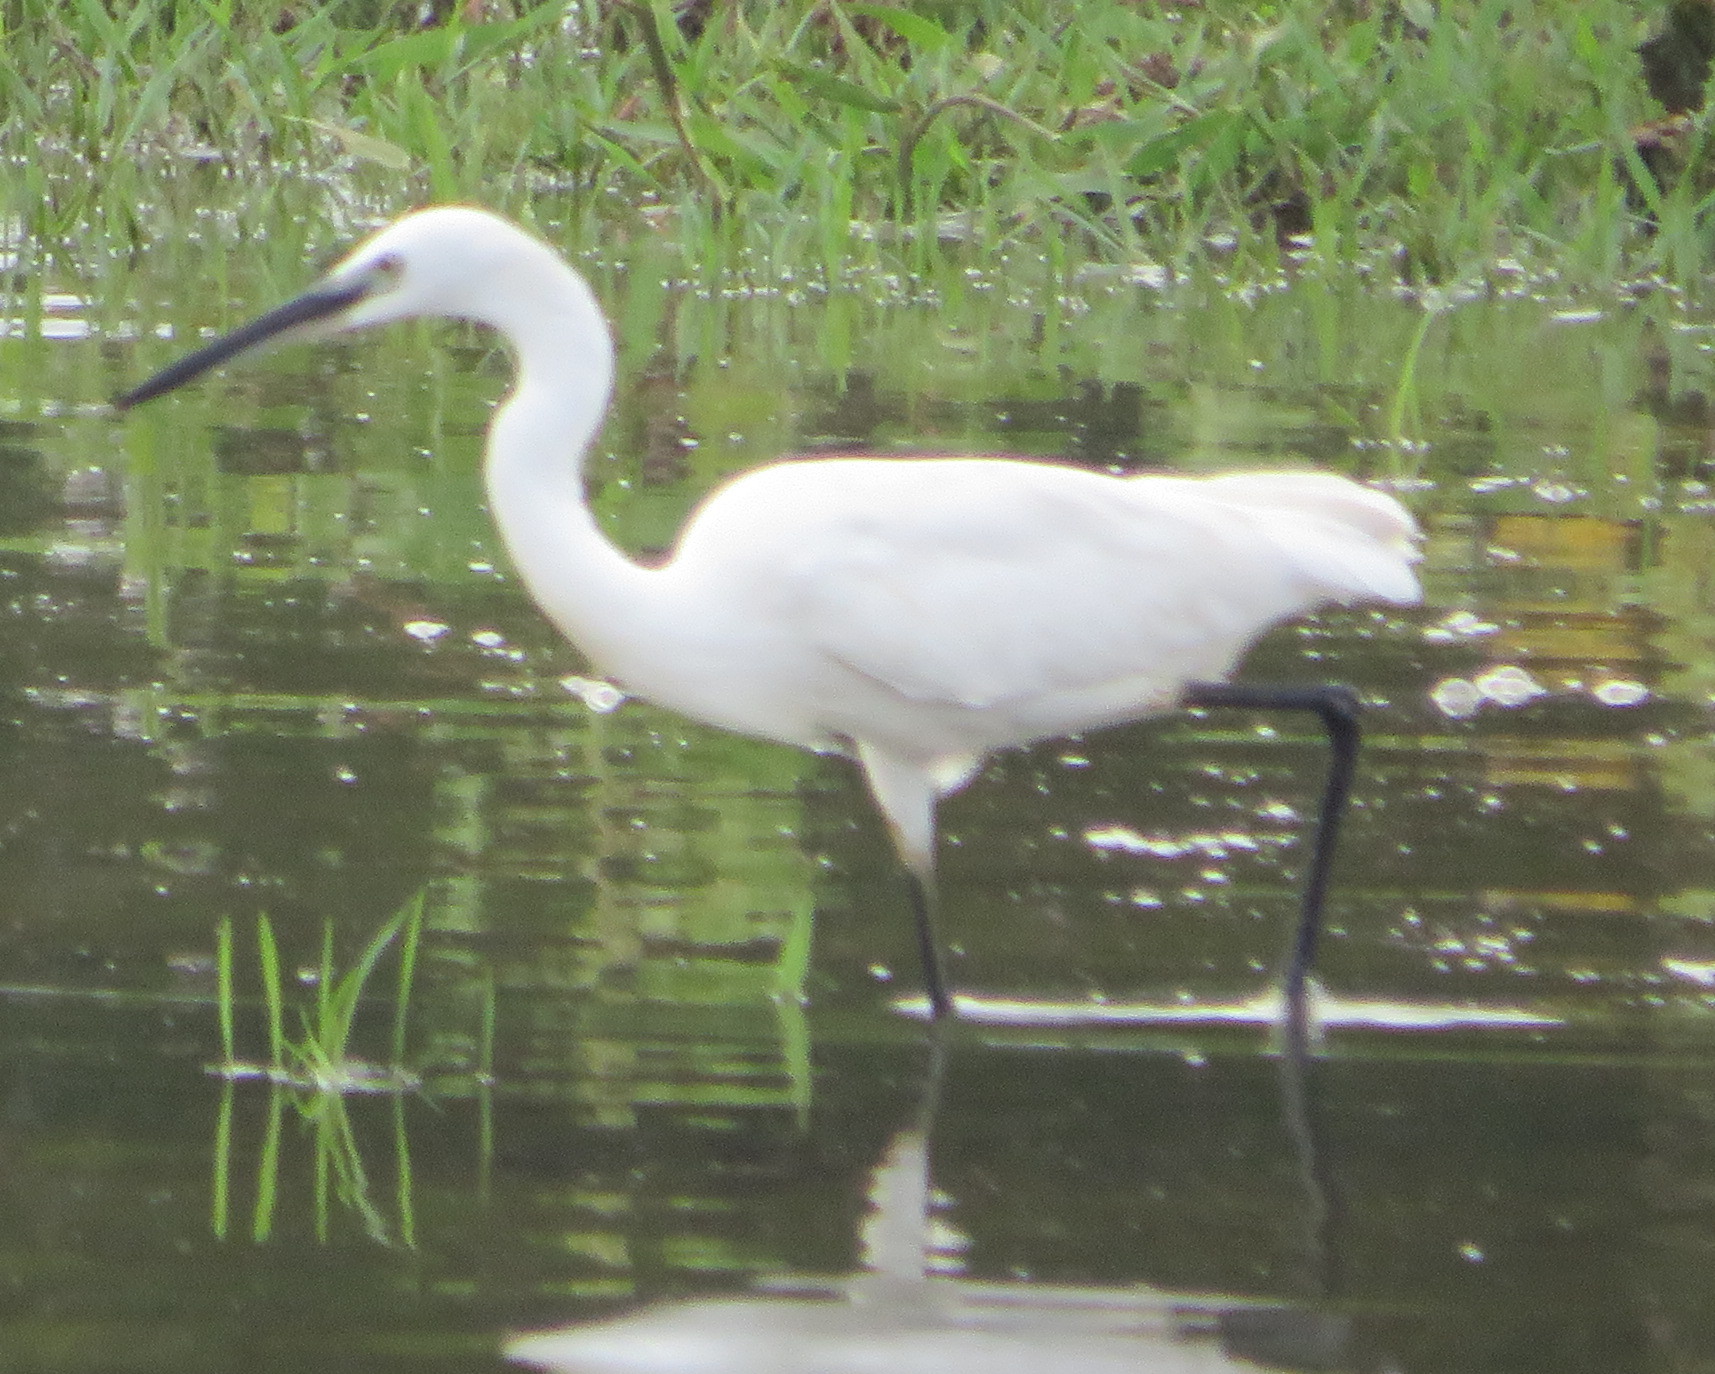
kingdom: Animalia
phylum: Chordata
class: Aves
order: Pelecaniformes
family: Ardeidae
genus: Egretta
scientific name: Egretta garzetta
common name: Little egret
